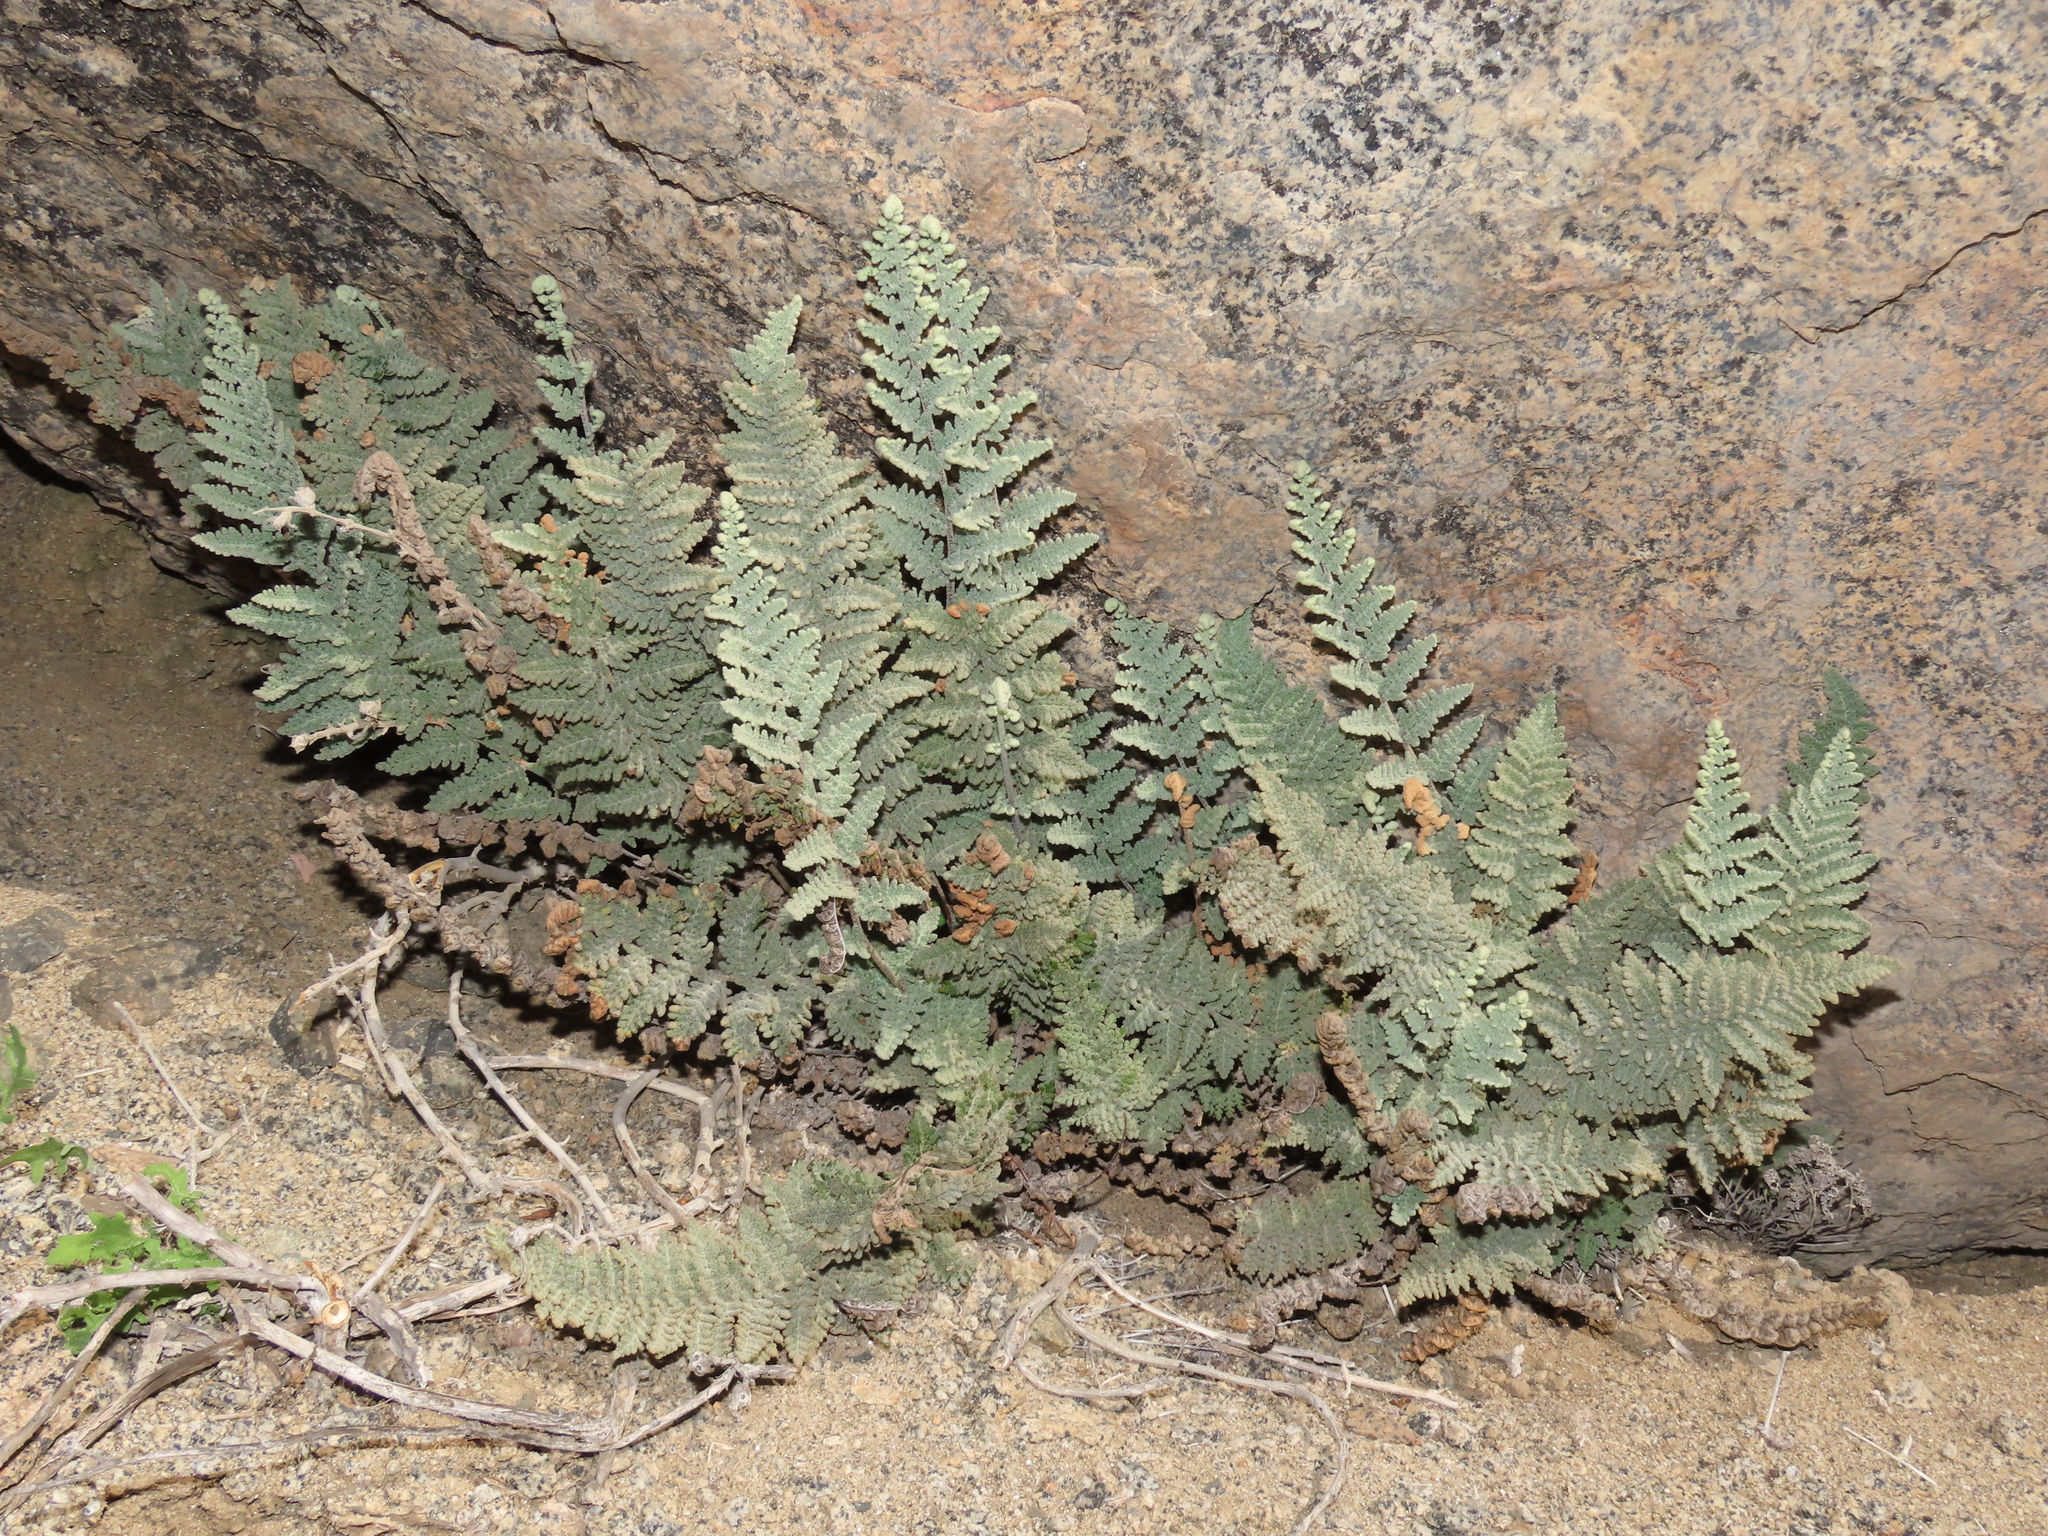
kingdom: Plantae
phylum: Tracheophyta
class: Polypodiopsida
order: Polypodiales
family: Pteridaceae
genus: Cheilanthes
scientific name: Cheilanthes mollis
